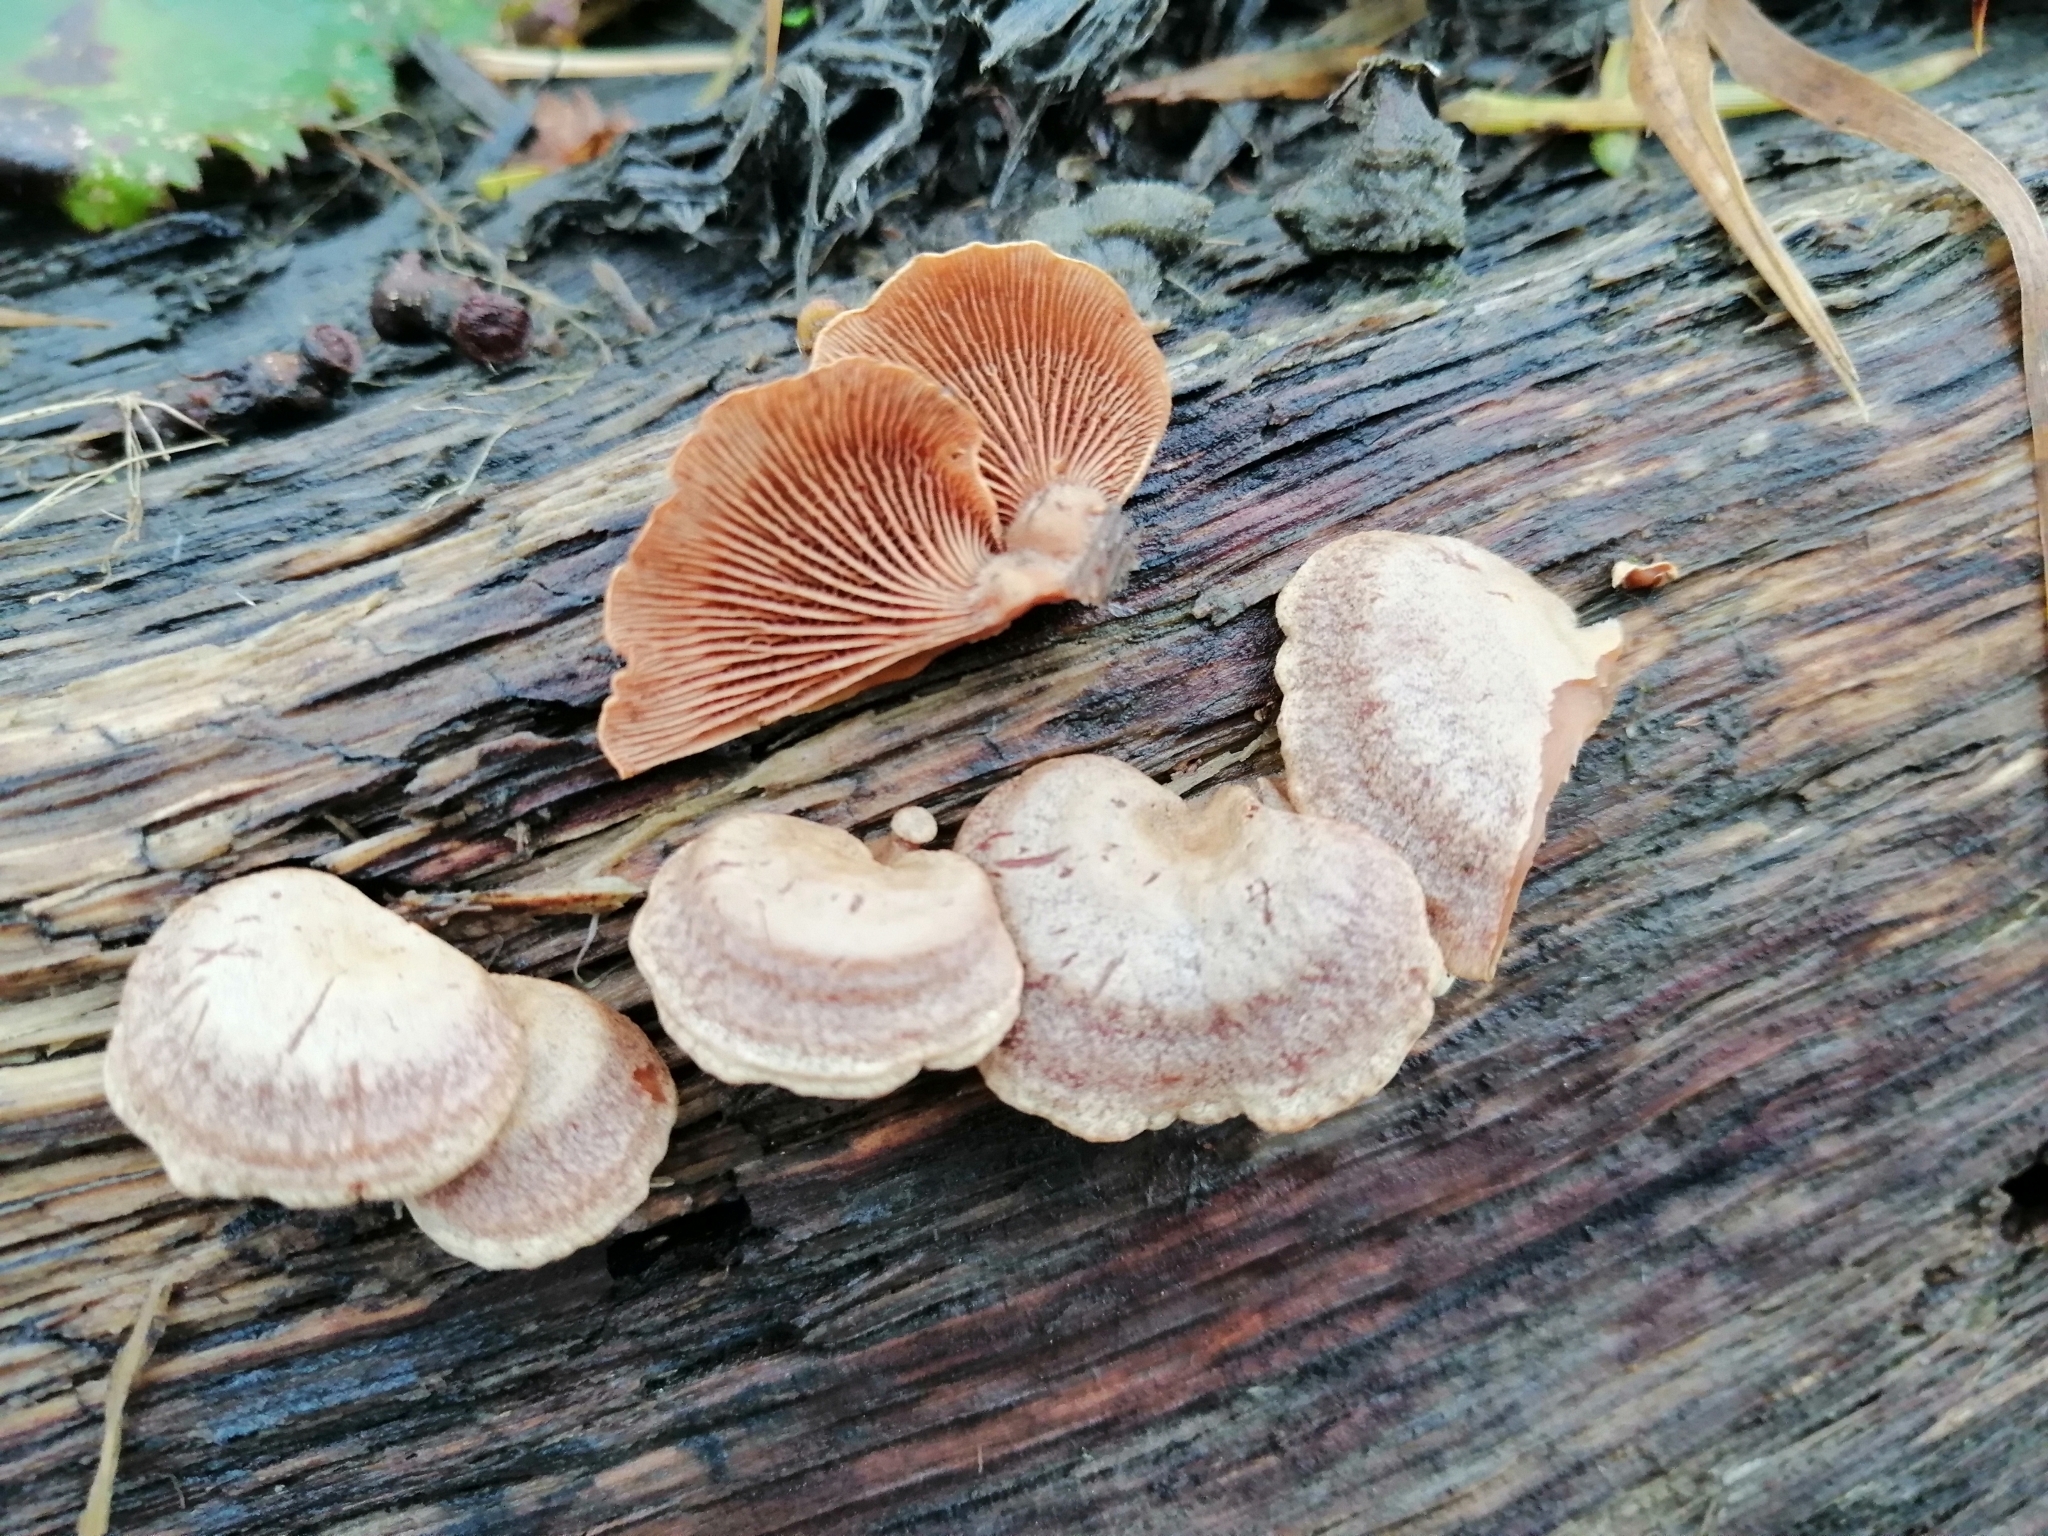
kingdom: Fungi
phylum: Basidiomycota
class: Agaricomycetes
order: Agaricales
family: Mycenaceae
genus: Panellus
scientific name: Panellus stipticus
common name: Bitter oysterling
